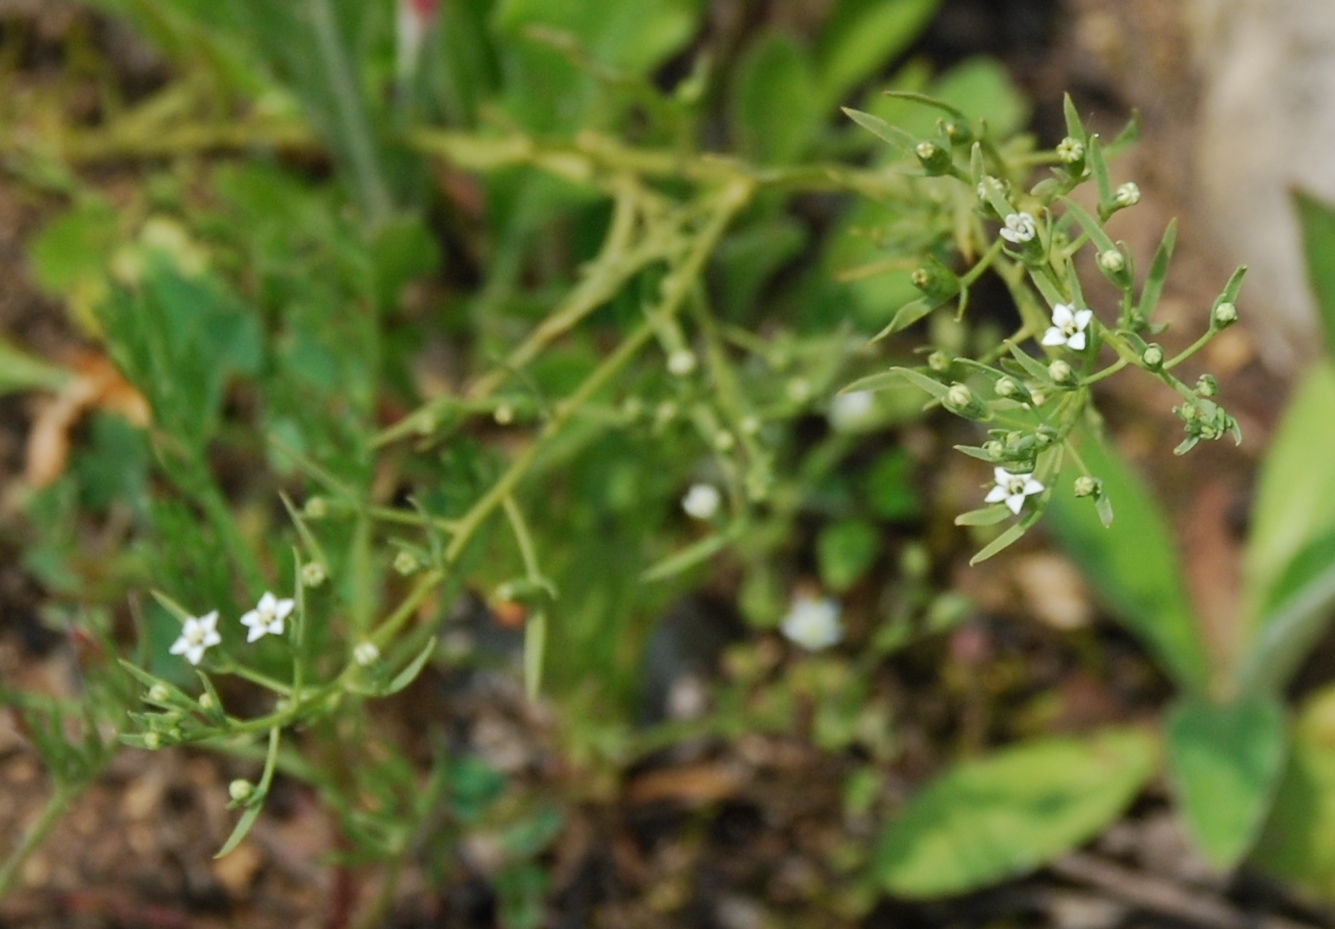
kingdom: Plantae
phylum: Tracheophyta
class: Magnoliopsida
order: Santalales
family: Thesiaceae
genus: Thesium
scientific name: Thesium ramosum
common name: Field thesium
